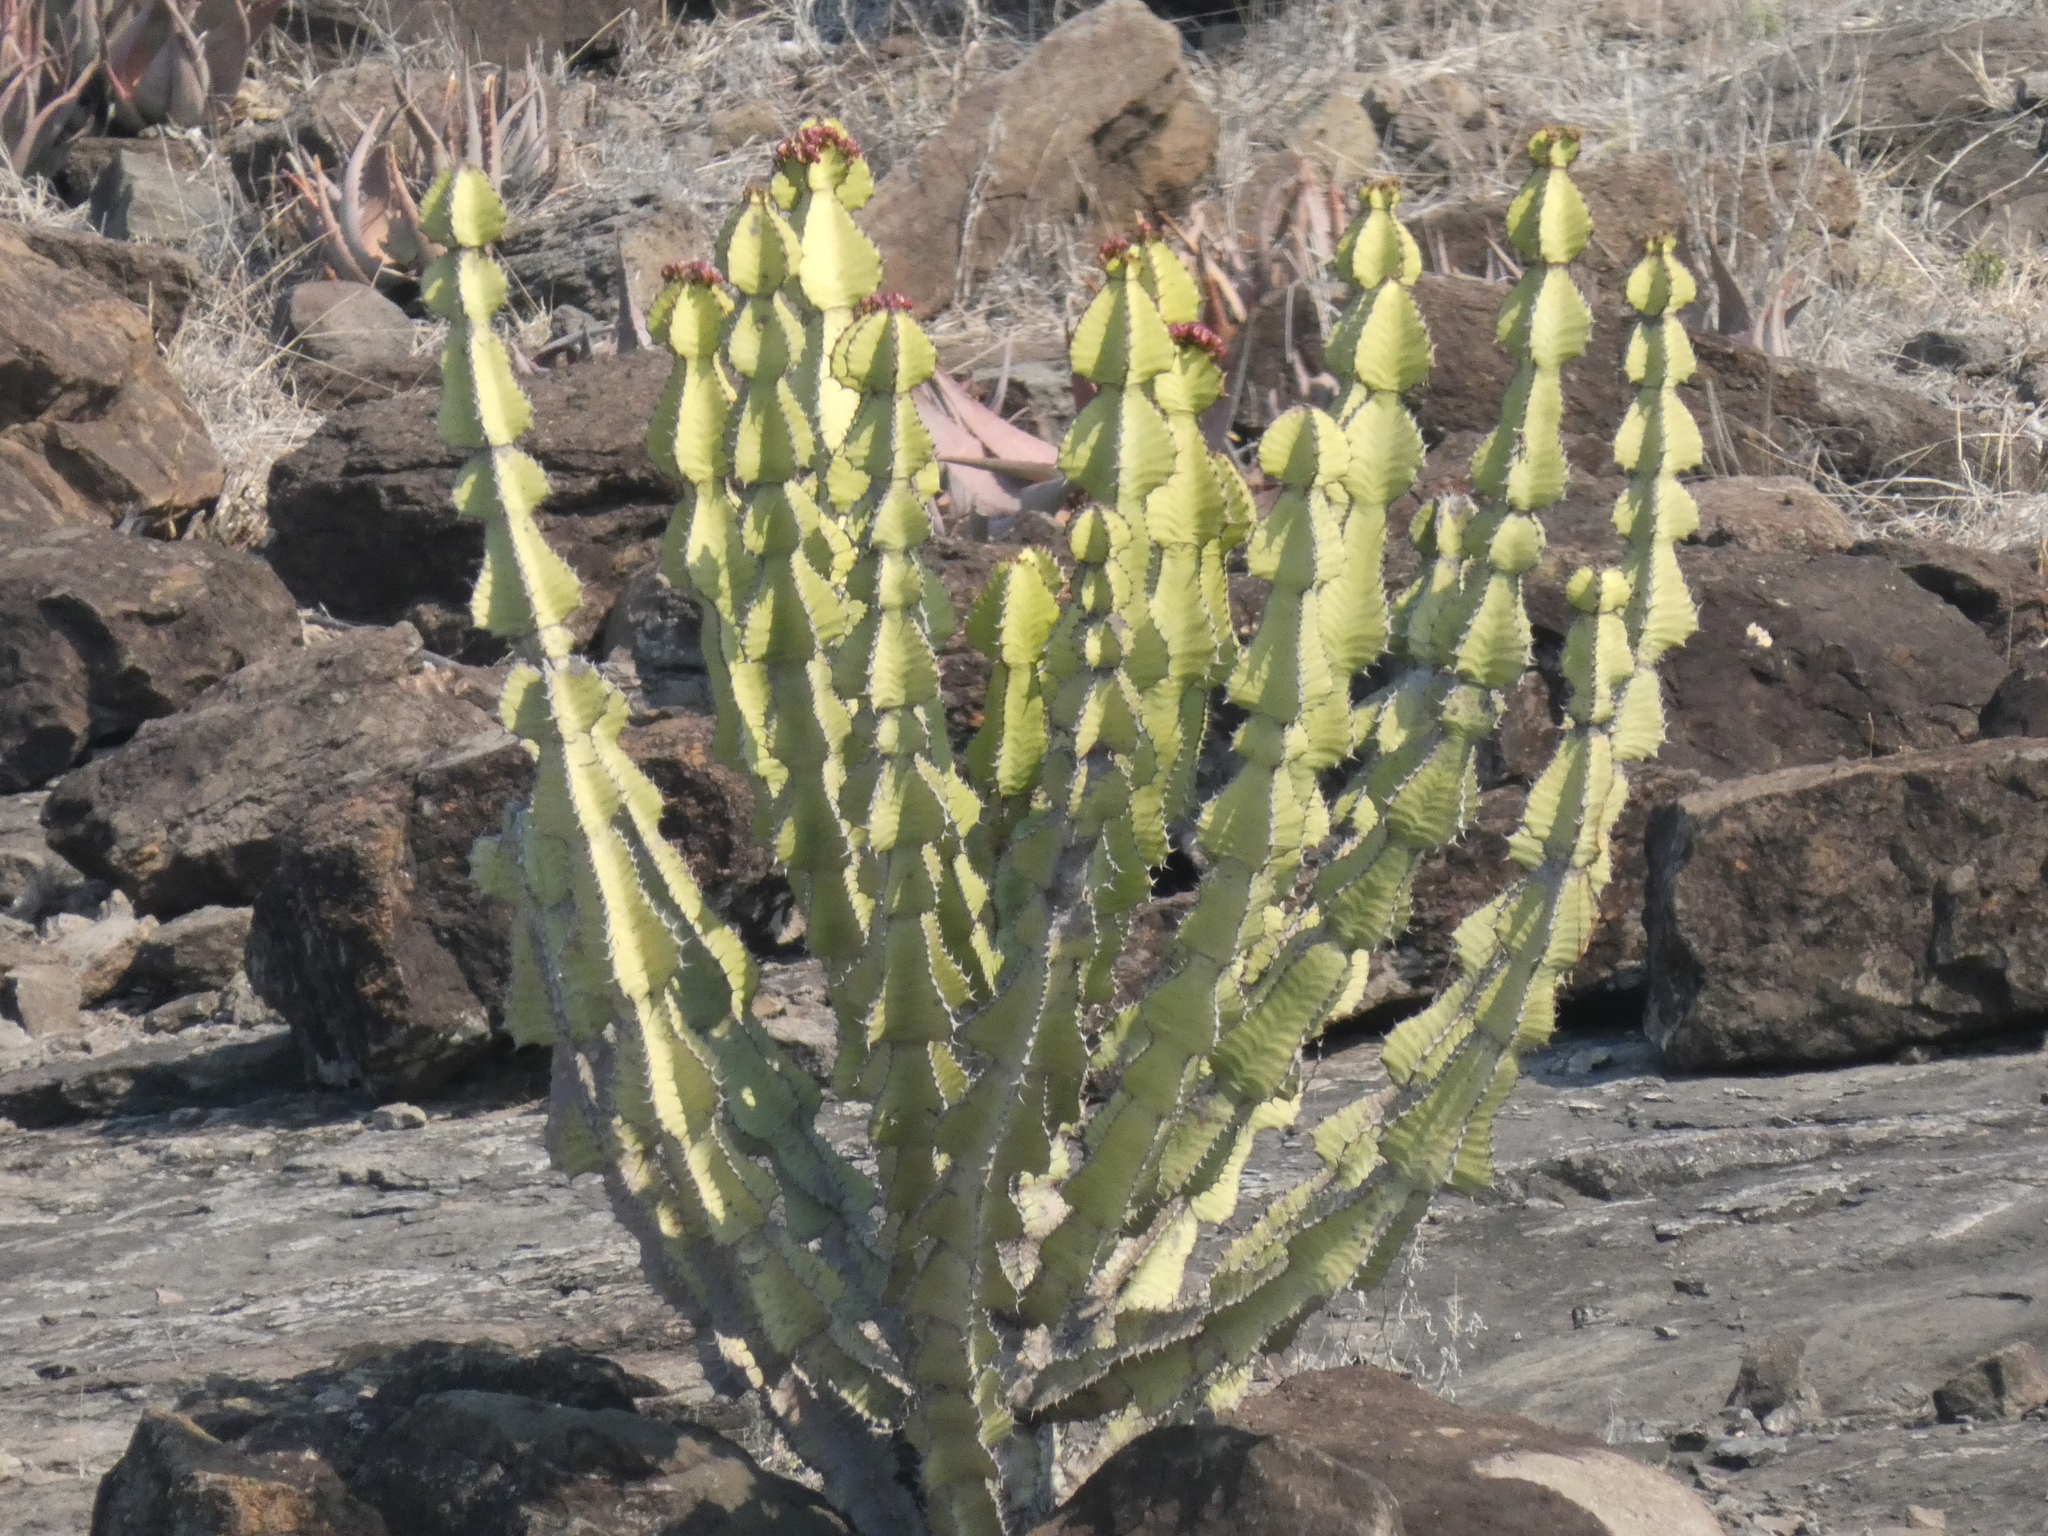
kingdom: Plantae
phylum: Tracheophyta
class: Magnoliopsida
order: Malpighiales
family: Euphorbiaceae
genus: Euphorbia
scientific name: Euphorbia cooperi
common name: Candelabra tree
